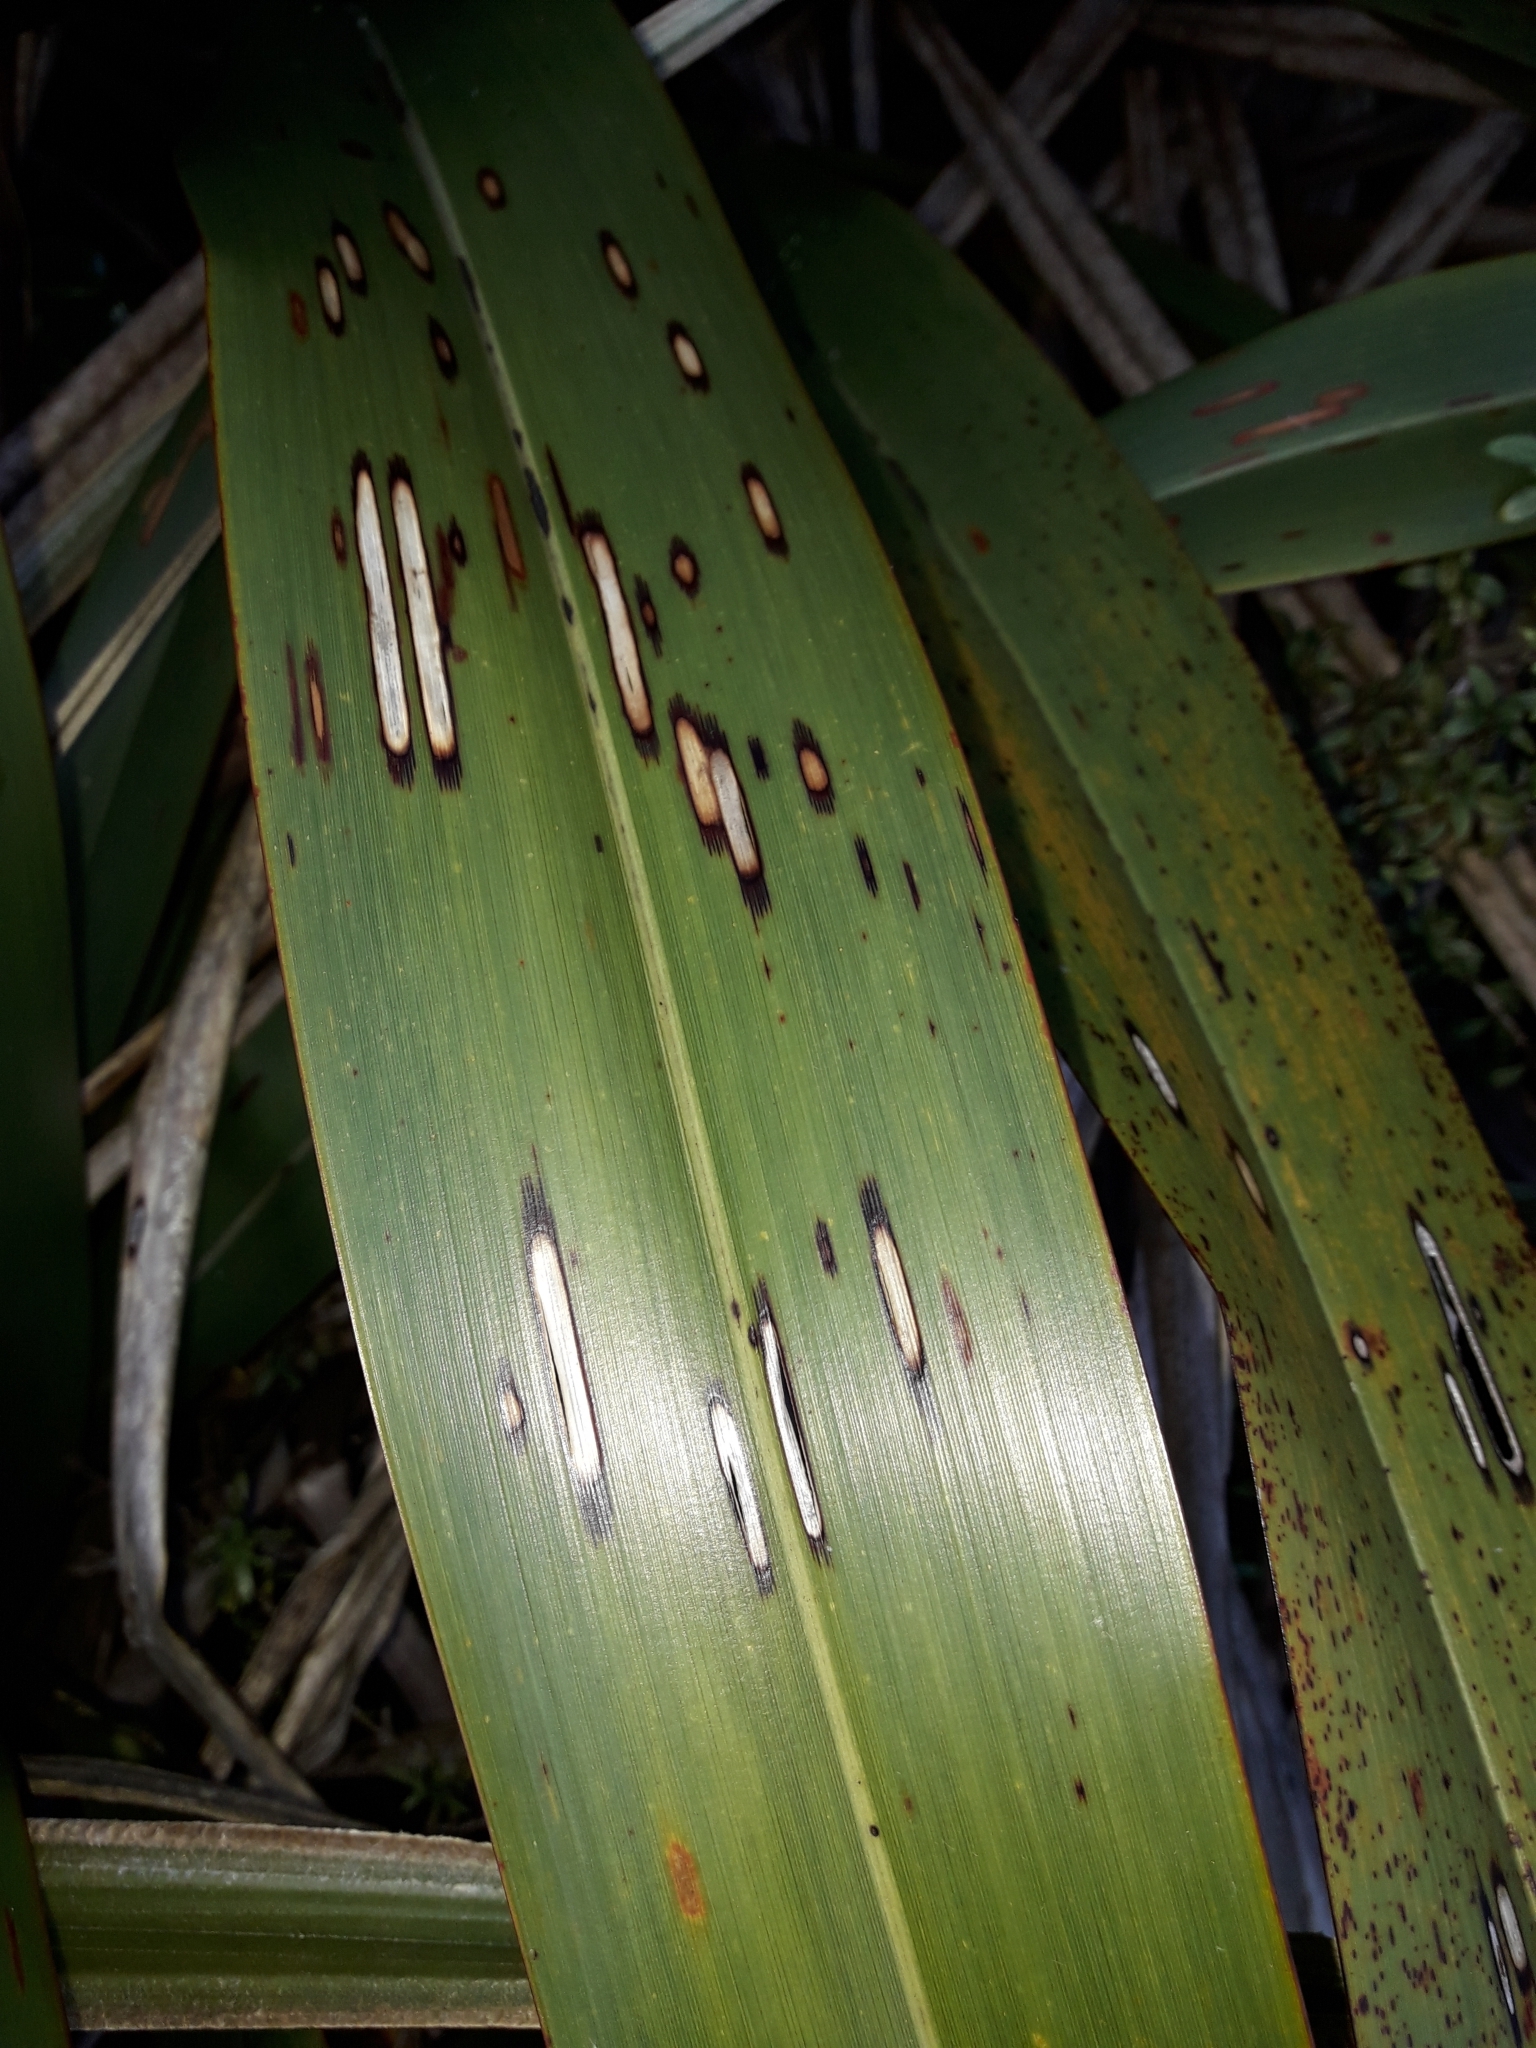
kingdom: Animalia
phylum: Arthropoda
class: Insecta
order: Lepidoptera
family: Geometridae
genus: Orthoclydon
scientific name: Orthoclydon praefectata
